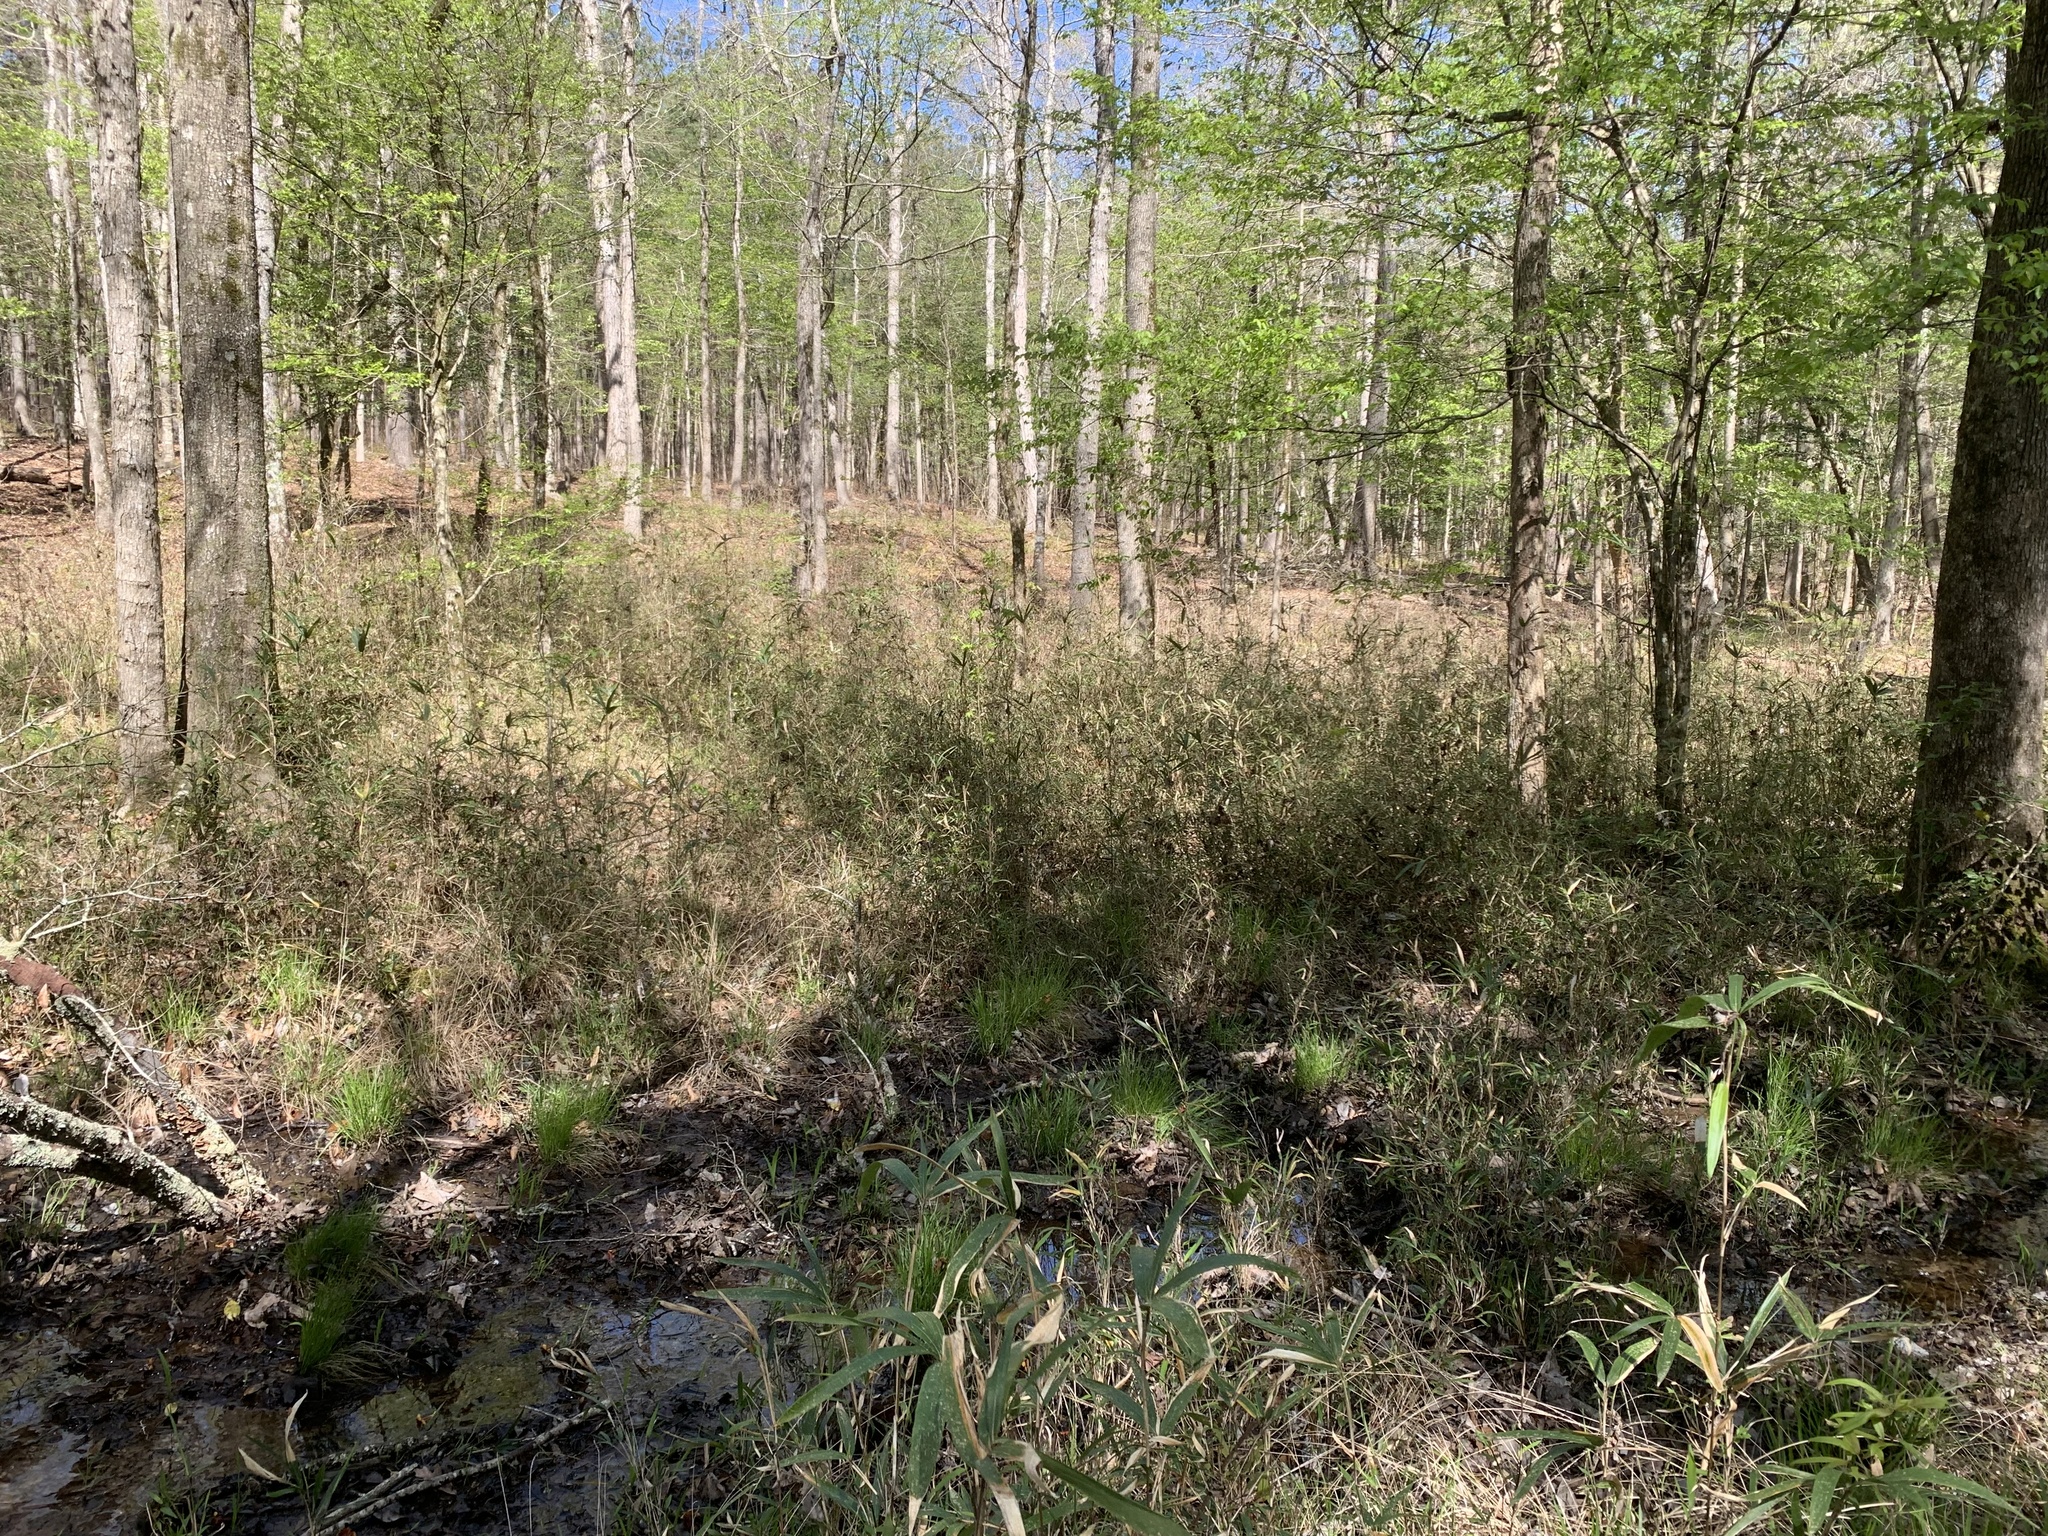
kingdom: Plantae
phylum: Tracheophyta
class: Liliopsida
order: Poales
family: Poaceae
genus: Arundinaria
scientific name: Arundinaria gigantea
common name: Giant cane
